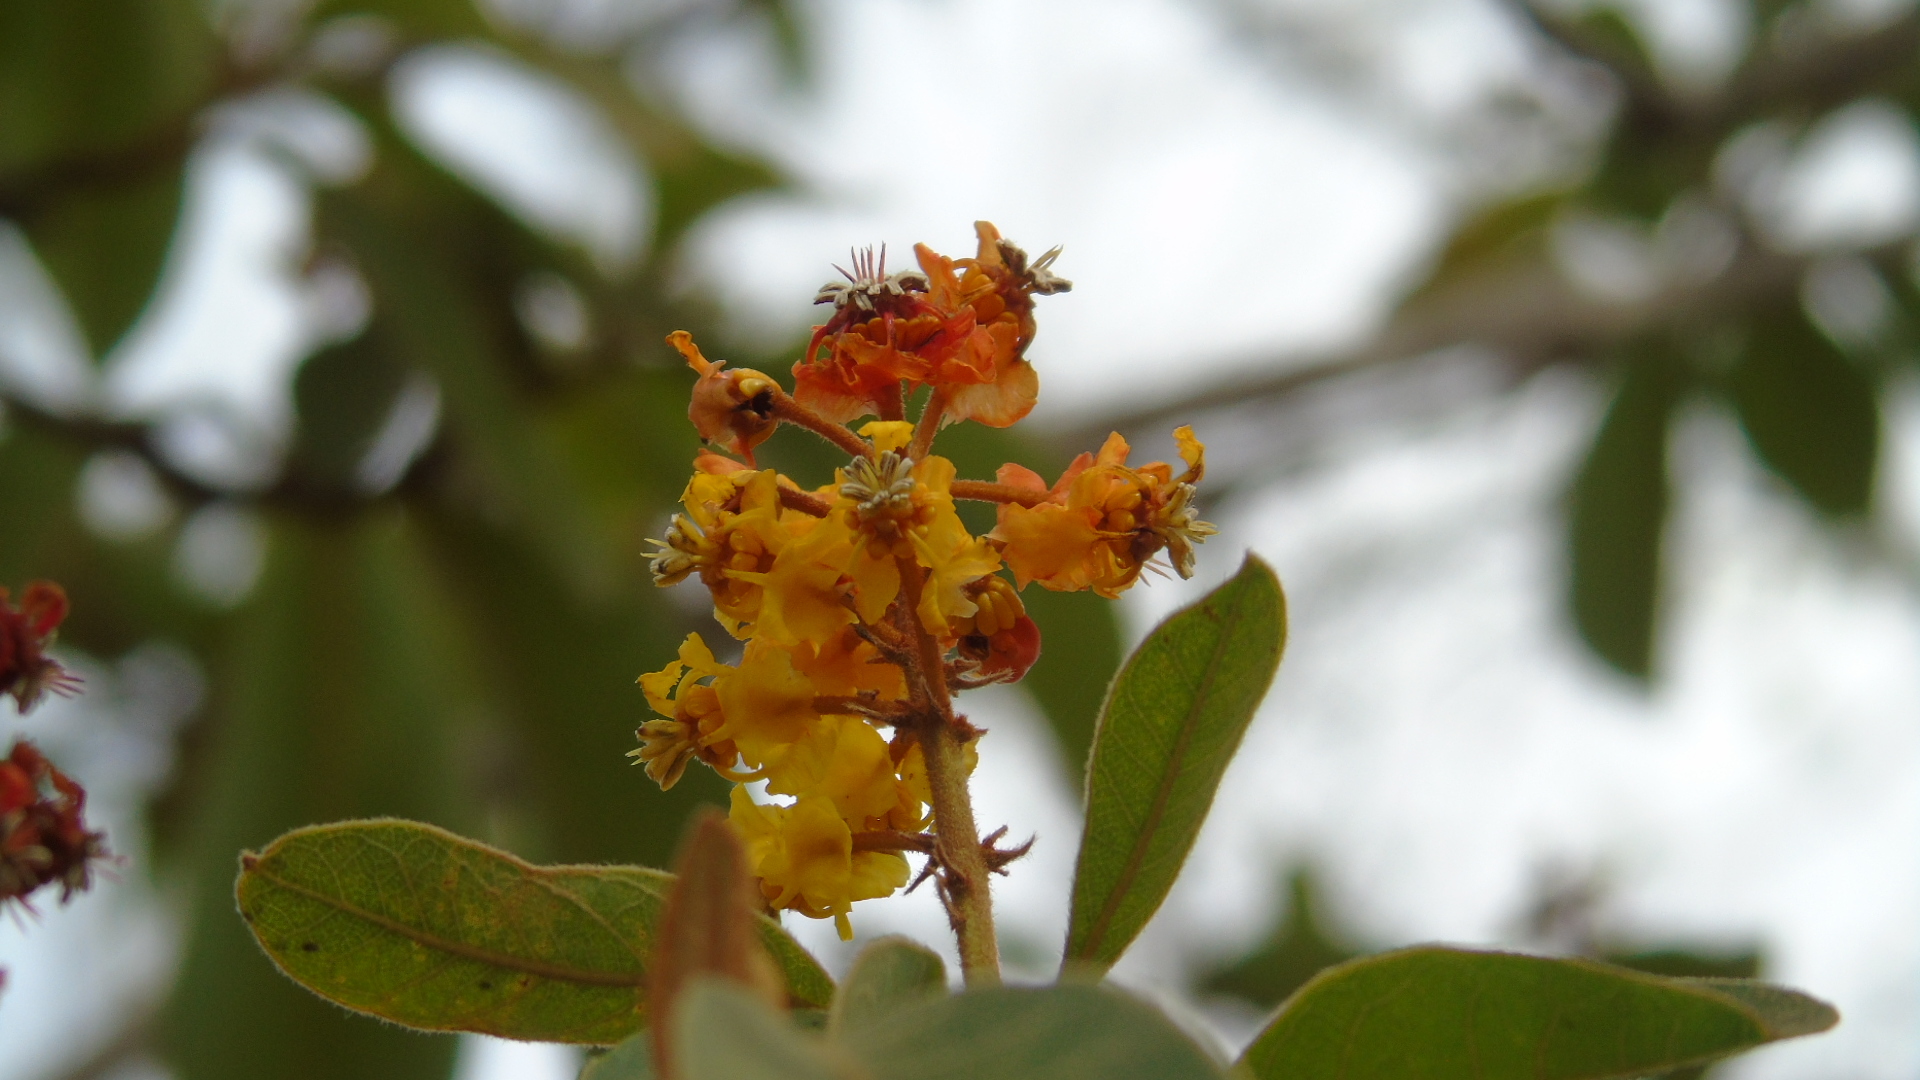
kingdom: Plantae
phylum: Tracheophyta
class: Magnoliopsida
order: Malpighiales
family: Malpighiaceae
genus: Byrsonima
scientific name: Byrsonima crassifolia
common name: Golden spoon
